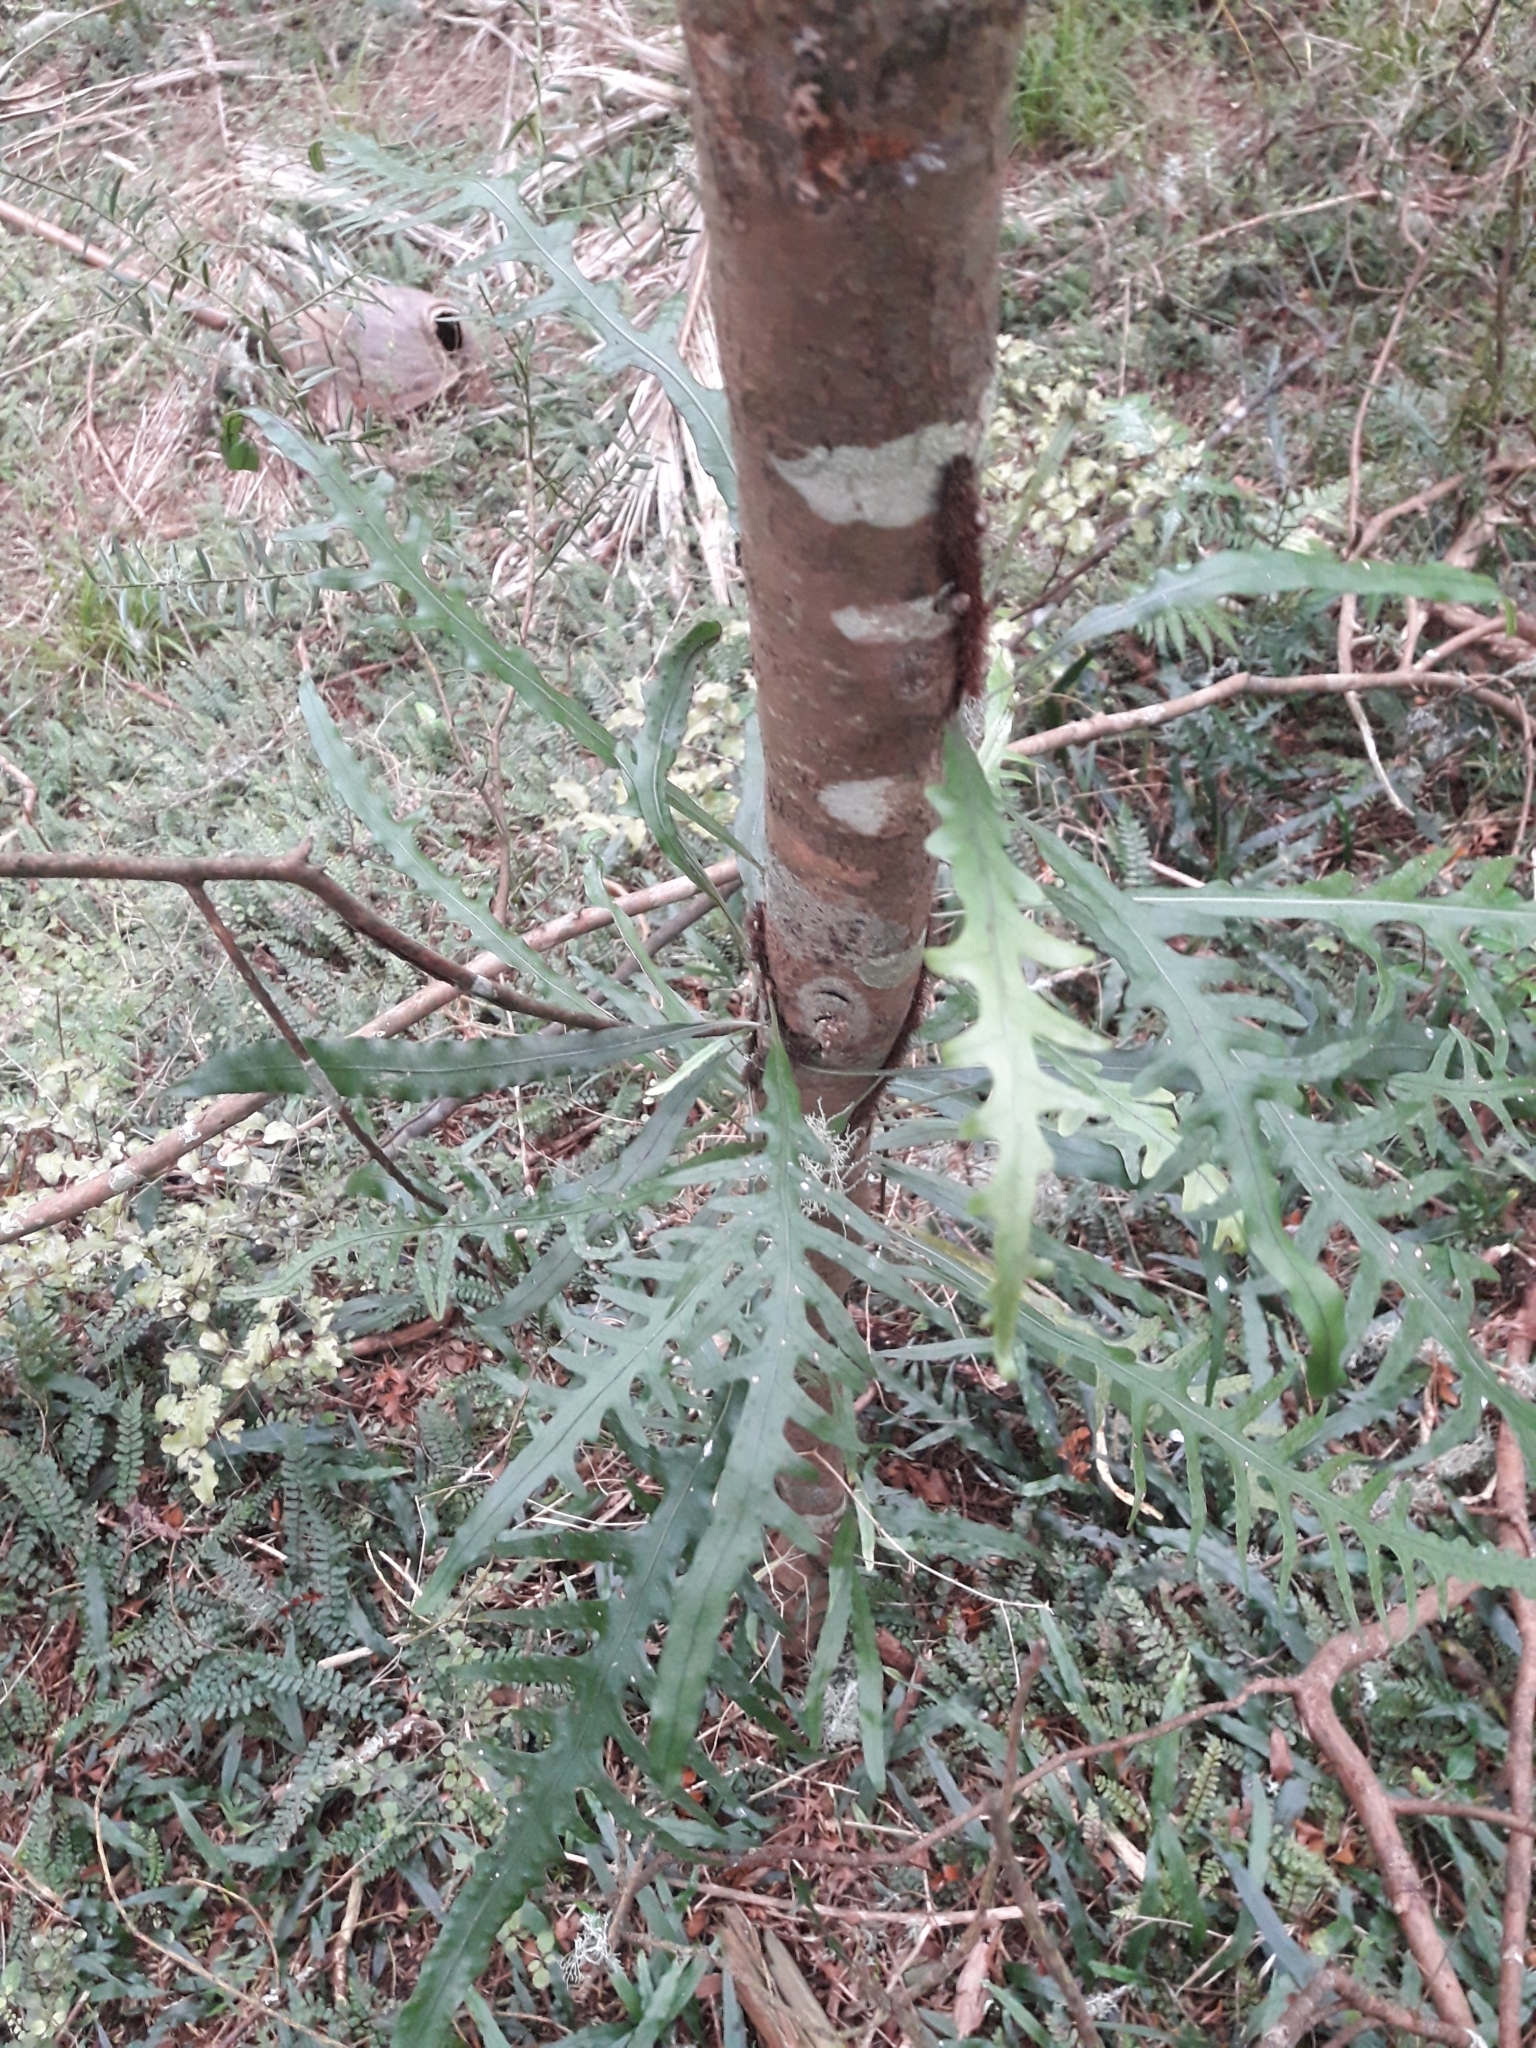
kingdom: Plantae
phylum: Tracheophyta
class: Polypodiopsida
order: Polypodiales
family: Polypodiaceae
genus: Lecanopteris
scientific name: Lecanopteris scandens
